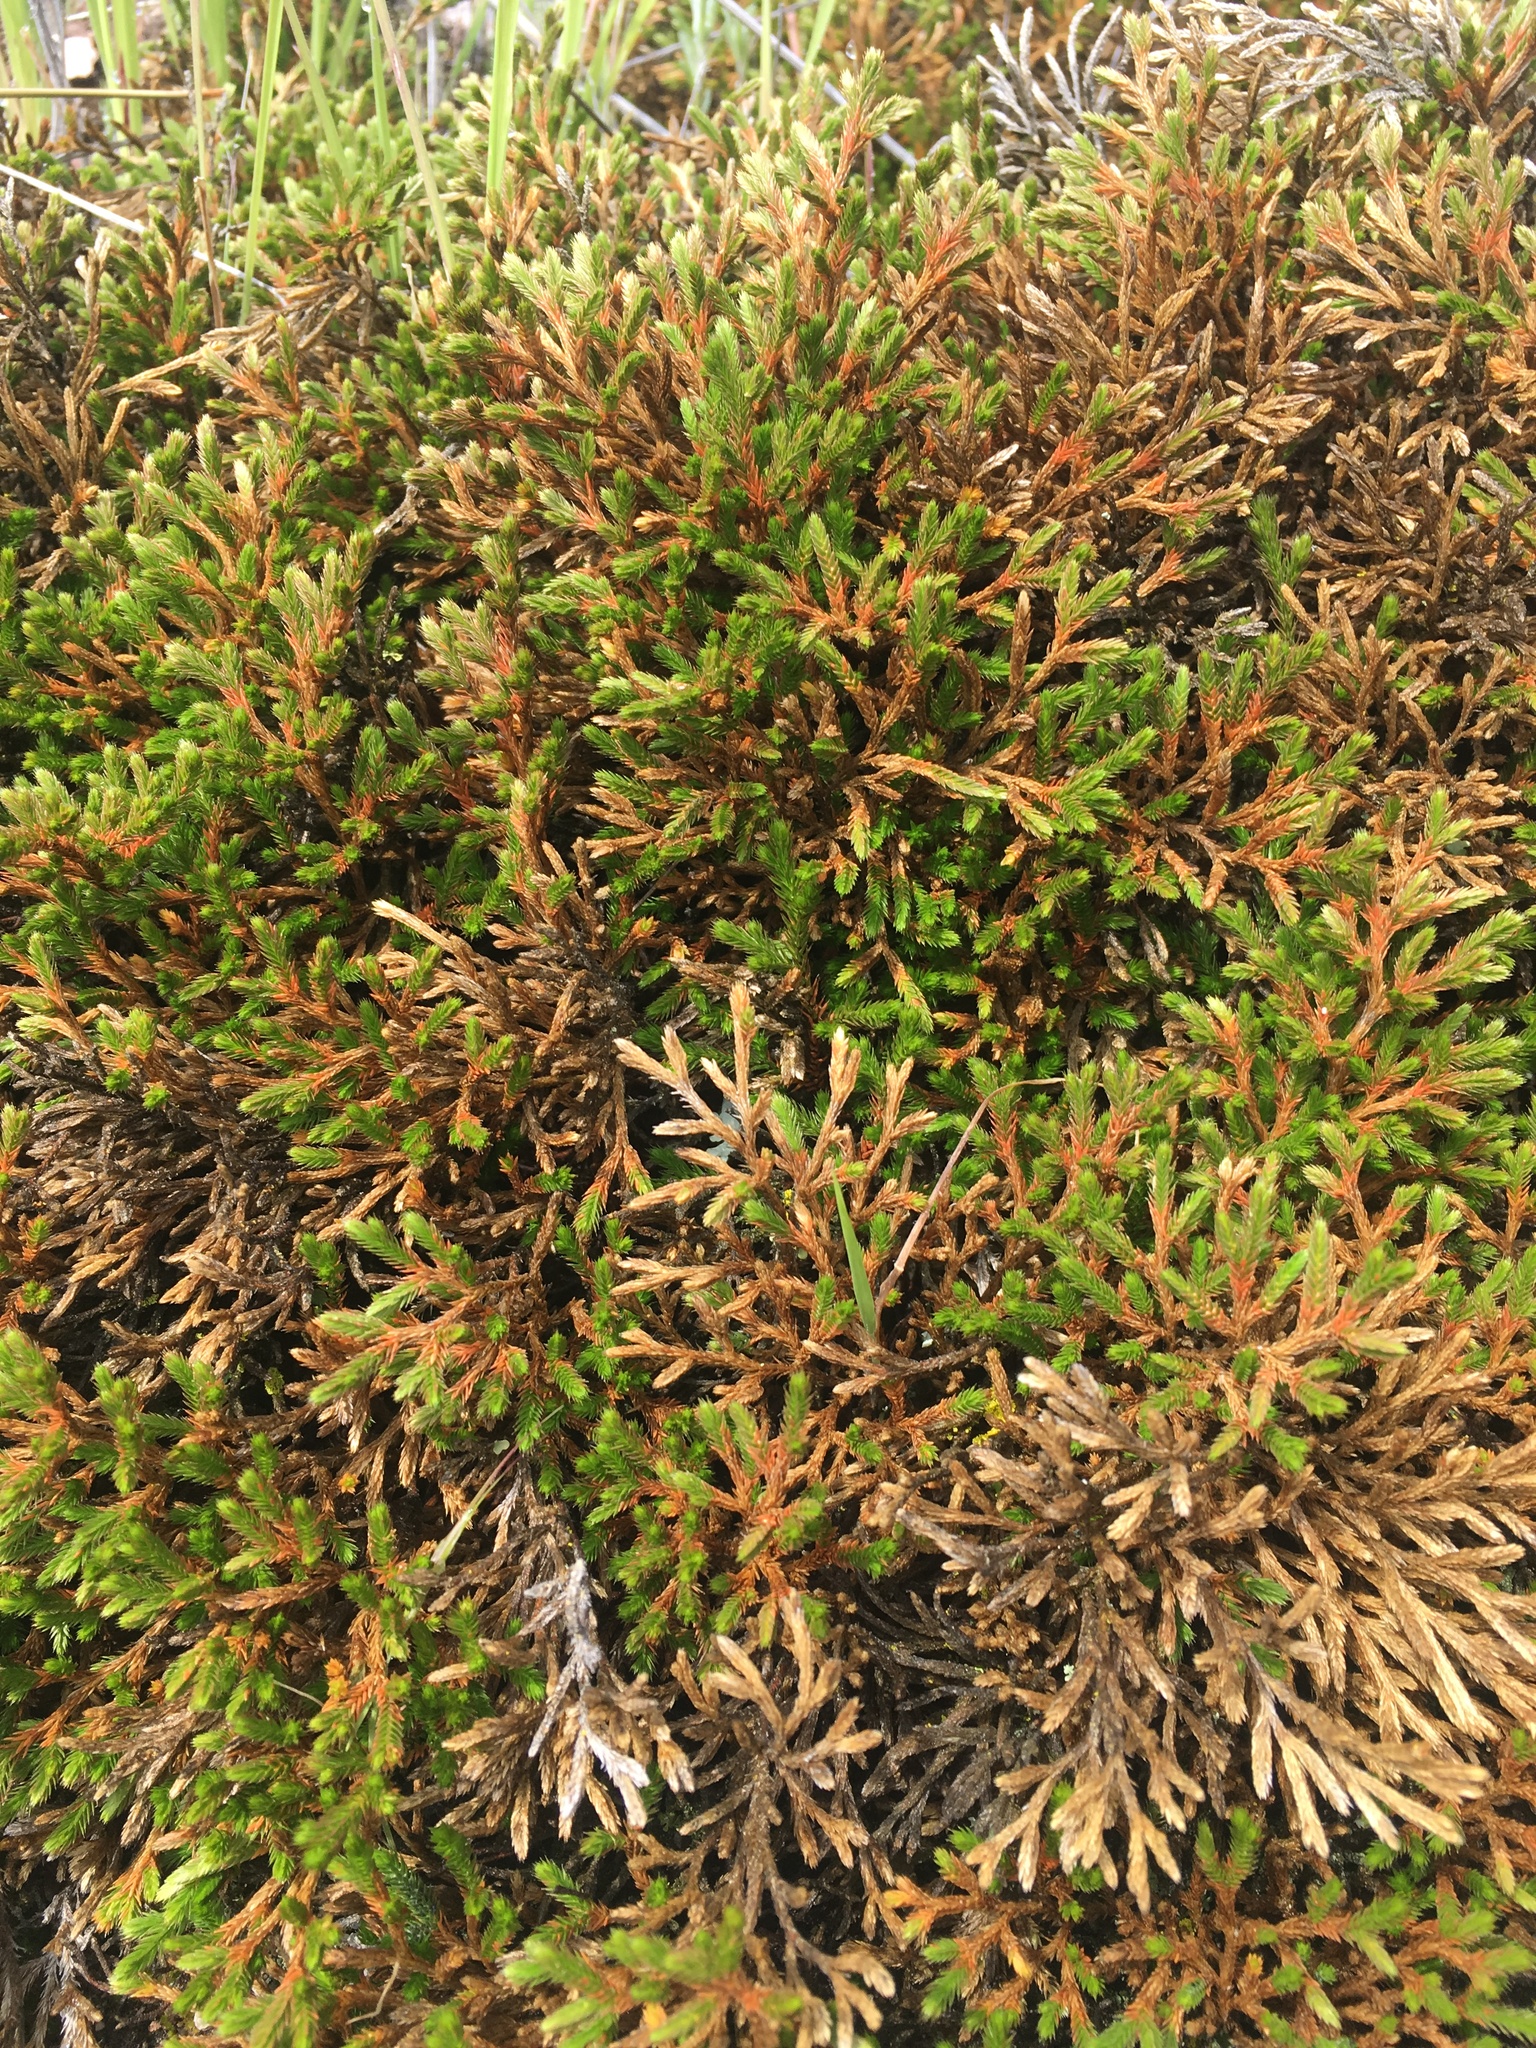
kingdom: Plantae
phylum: Tracheophyta
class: Lycopodiopsida
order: Selaginellales
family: Selaginellaceae
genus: Selaginella
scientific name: Selaginella bigelovii
